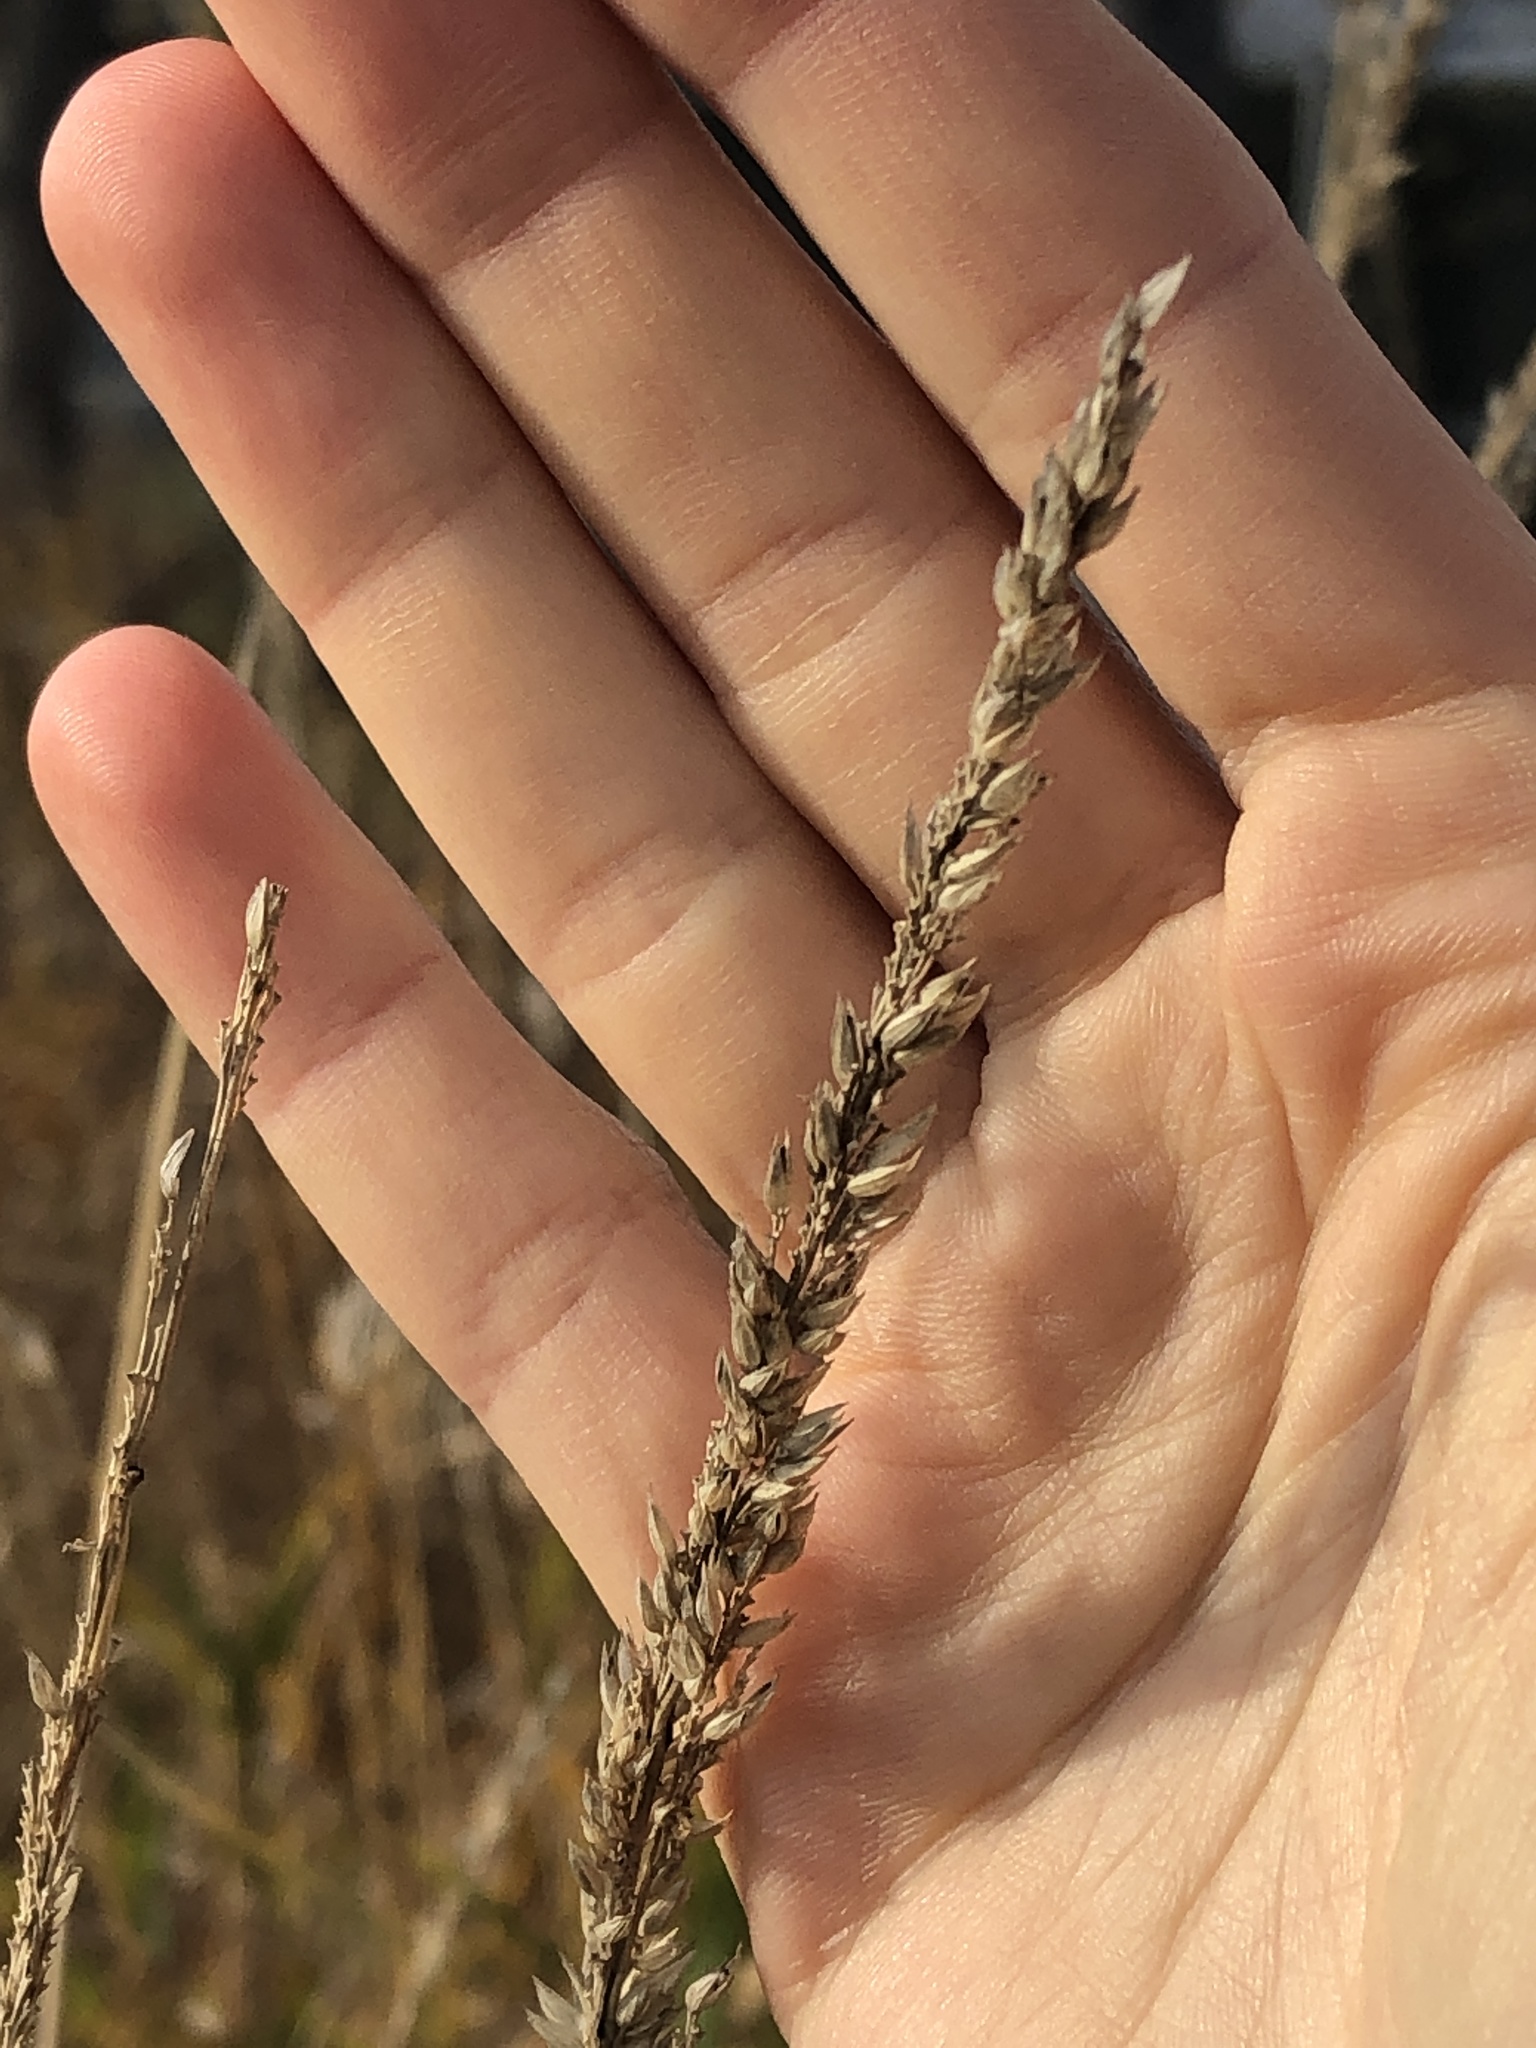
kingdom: Plantae
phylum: Tracheophyta
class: Liliopsida
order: Poales
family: Poaceae
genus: Phalaris
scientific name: Phalaris arundinacea
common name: Reed canary-grass
